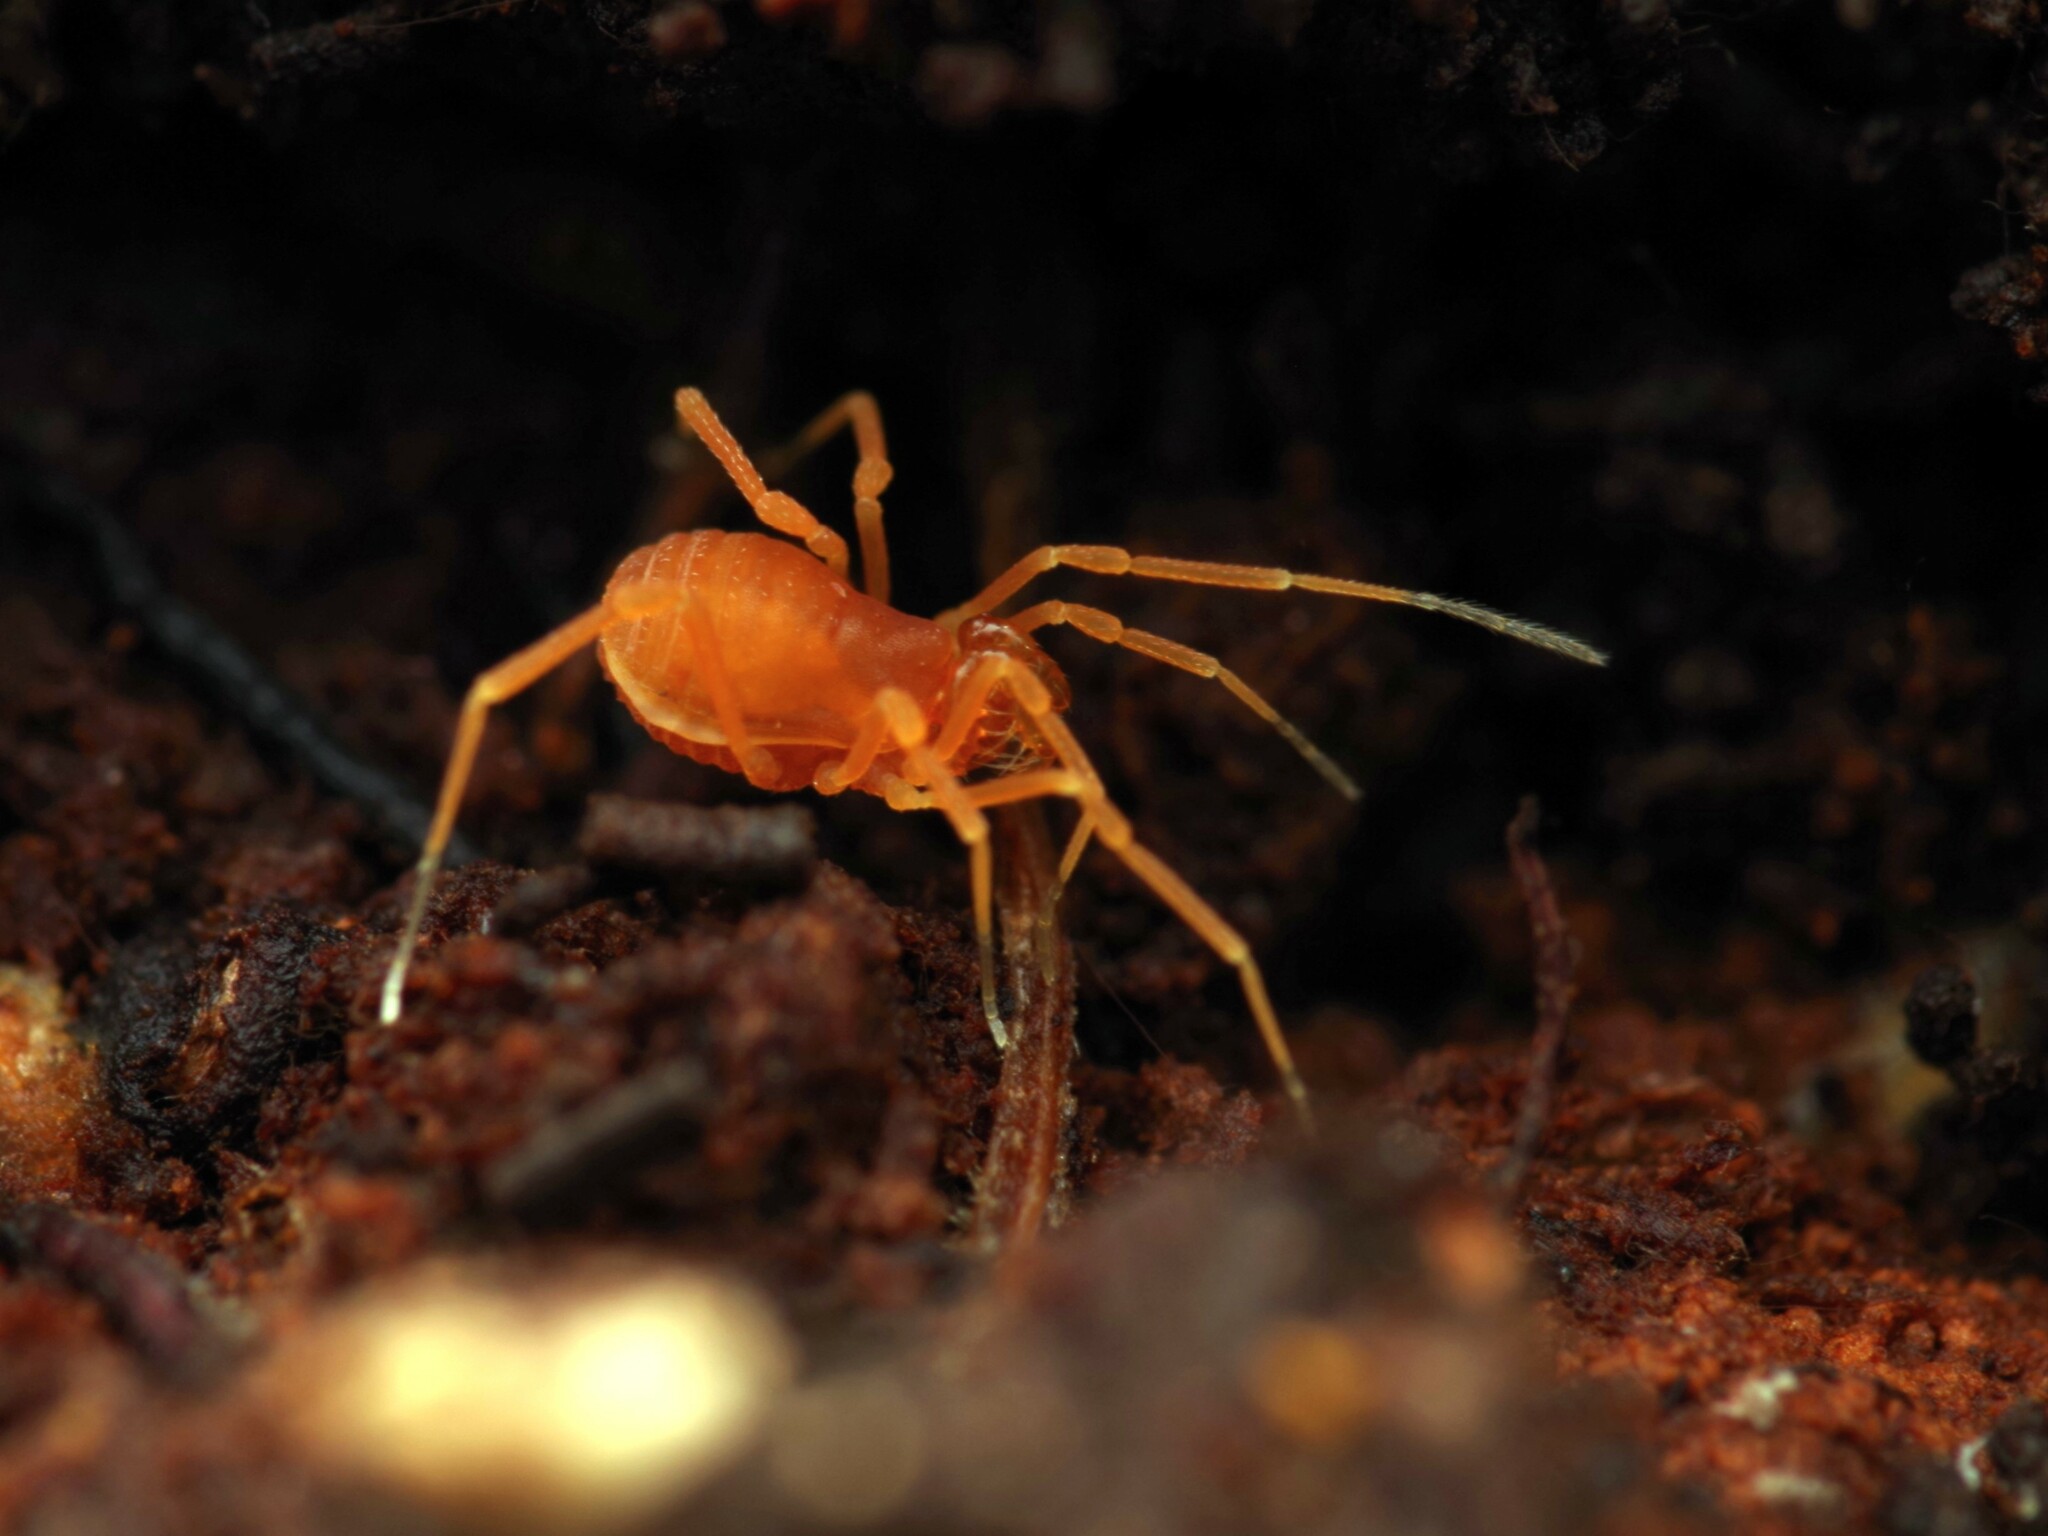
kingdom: Animalia
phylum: Arthropoda
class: Arachnida
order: Opiliones
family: Phalangodidae
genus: Scotolemon
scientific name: Scotolemon doriae
